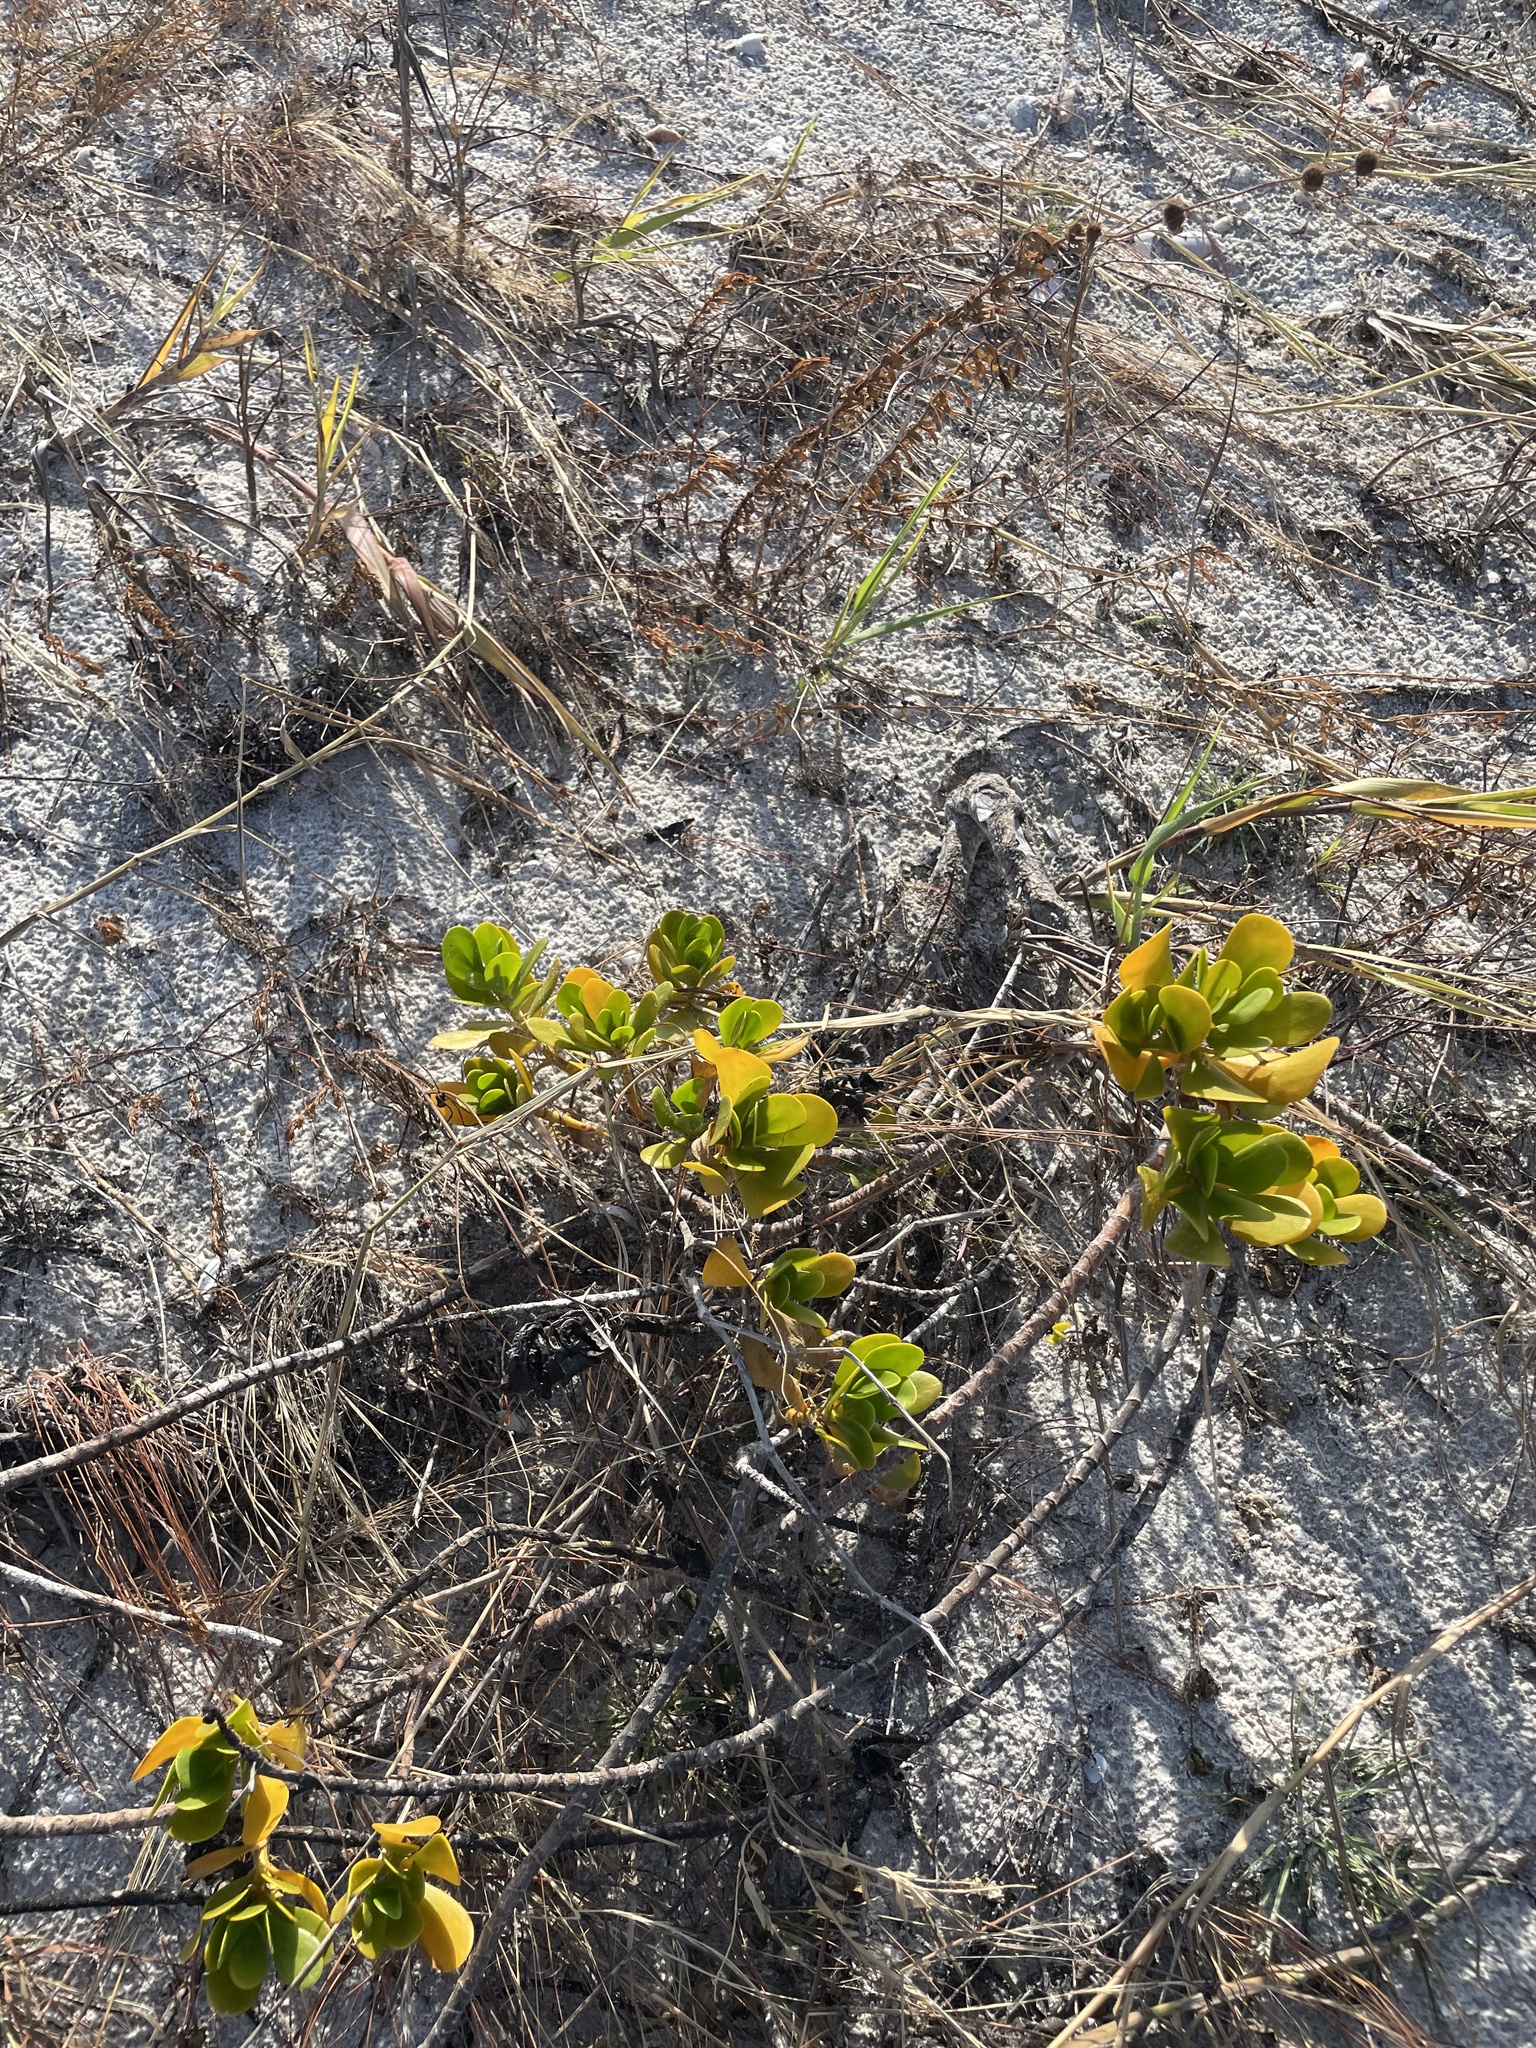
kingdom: Plantae
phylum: Tracheophyta
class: Magnoliopsida
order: Asterales
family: Goodeniaceae
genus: Scaevola
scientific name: Scaevola plumieri
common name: Gull feed
